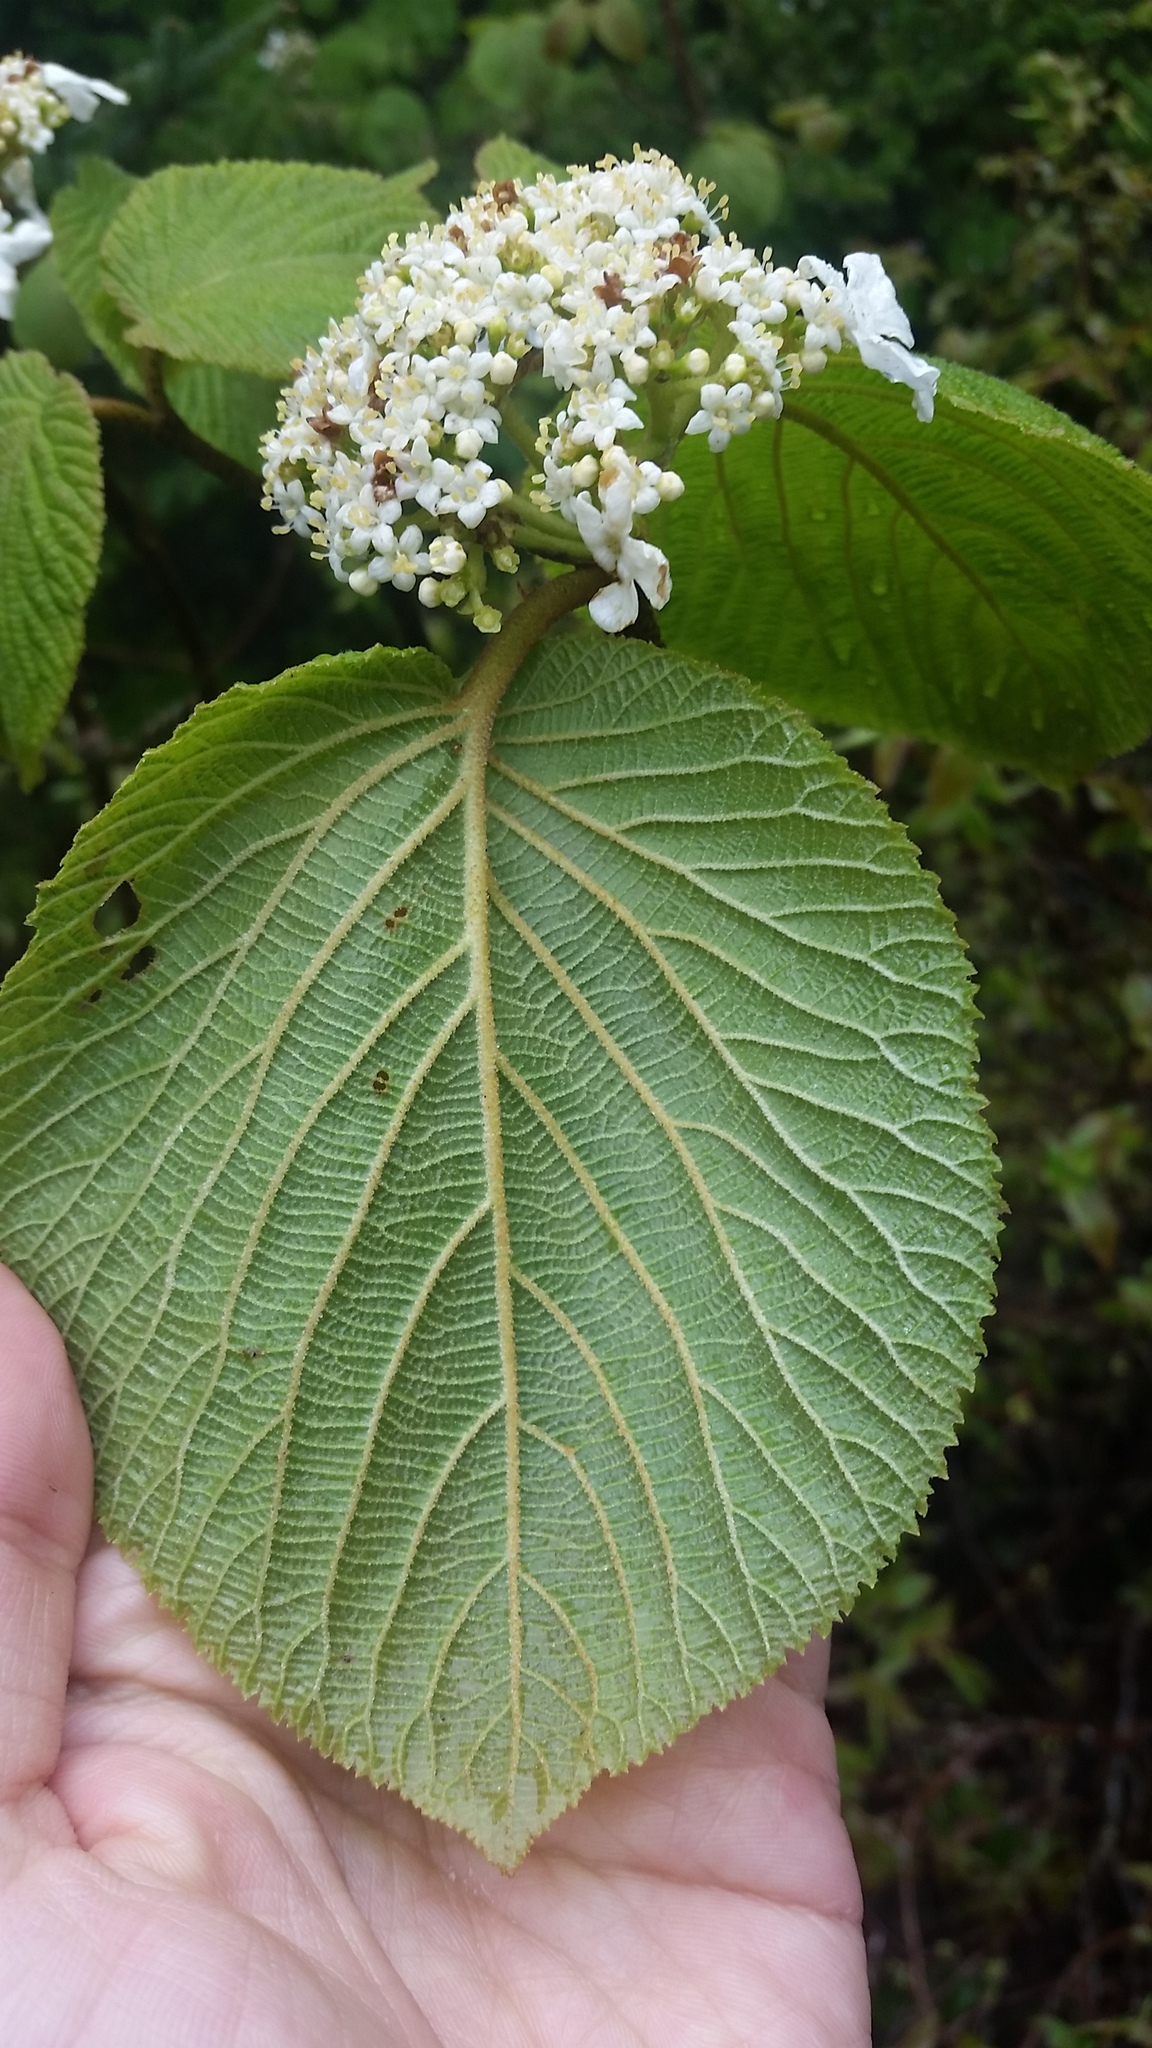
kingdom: Plantae
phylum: Tracheophyta
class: Magnoliopsida
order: Dipsacales
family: Viburnaceae
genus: Viburnum
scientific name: Viburnum lantanoides
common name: Hobblebush
